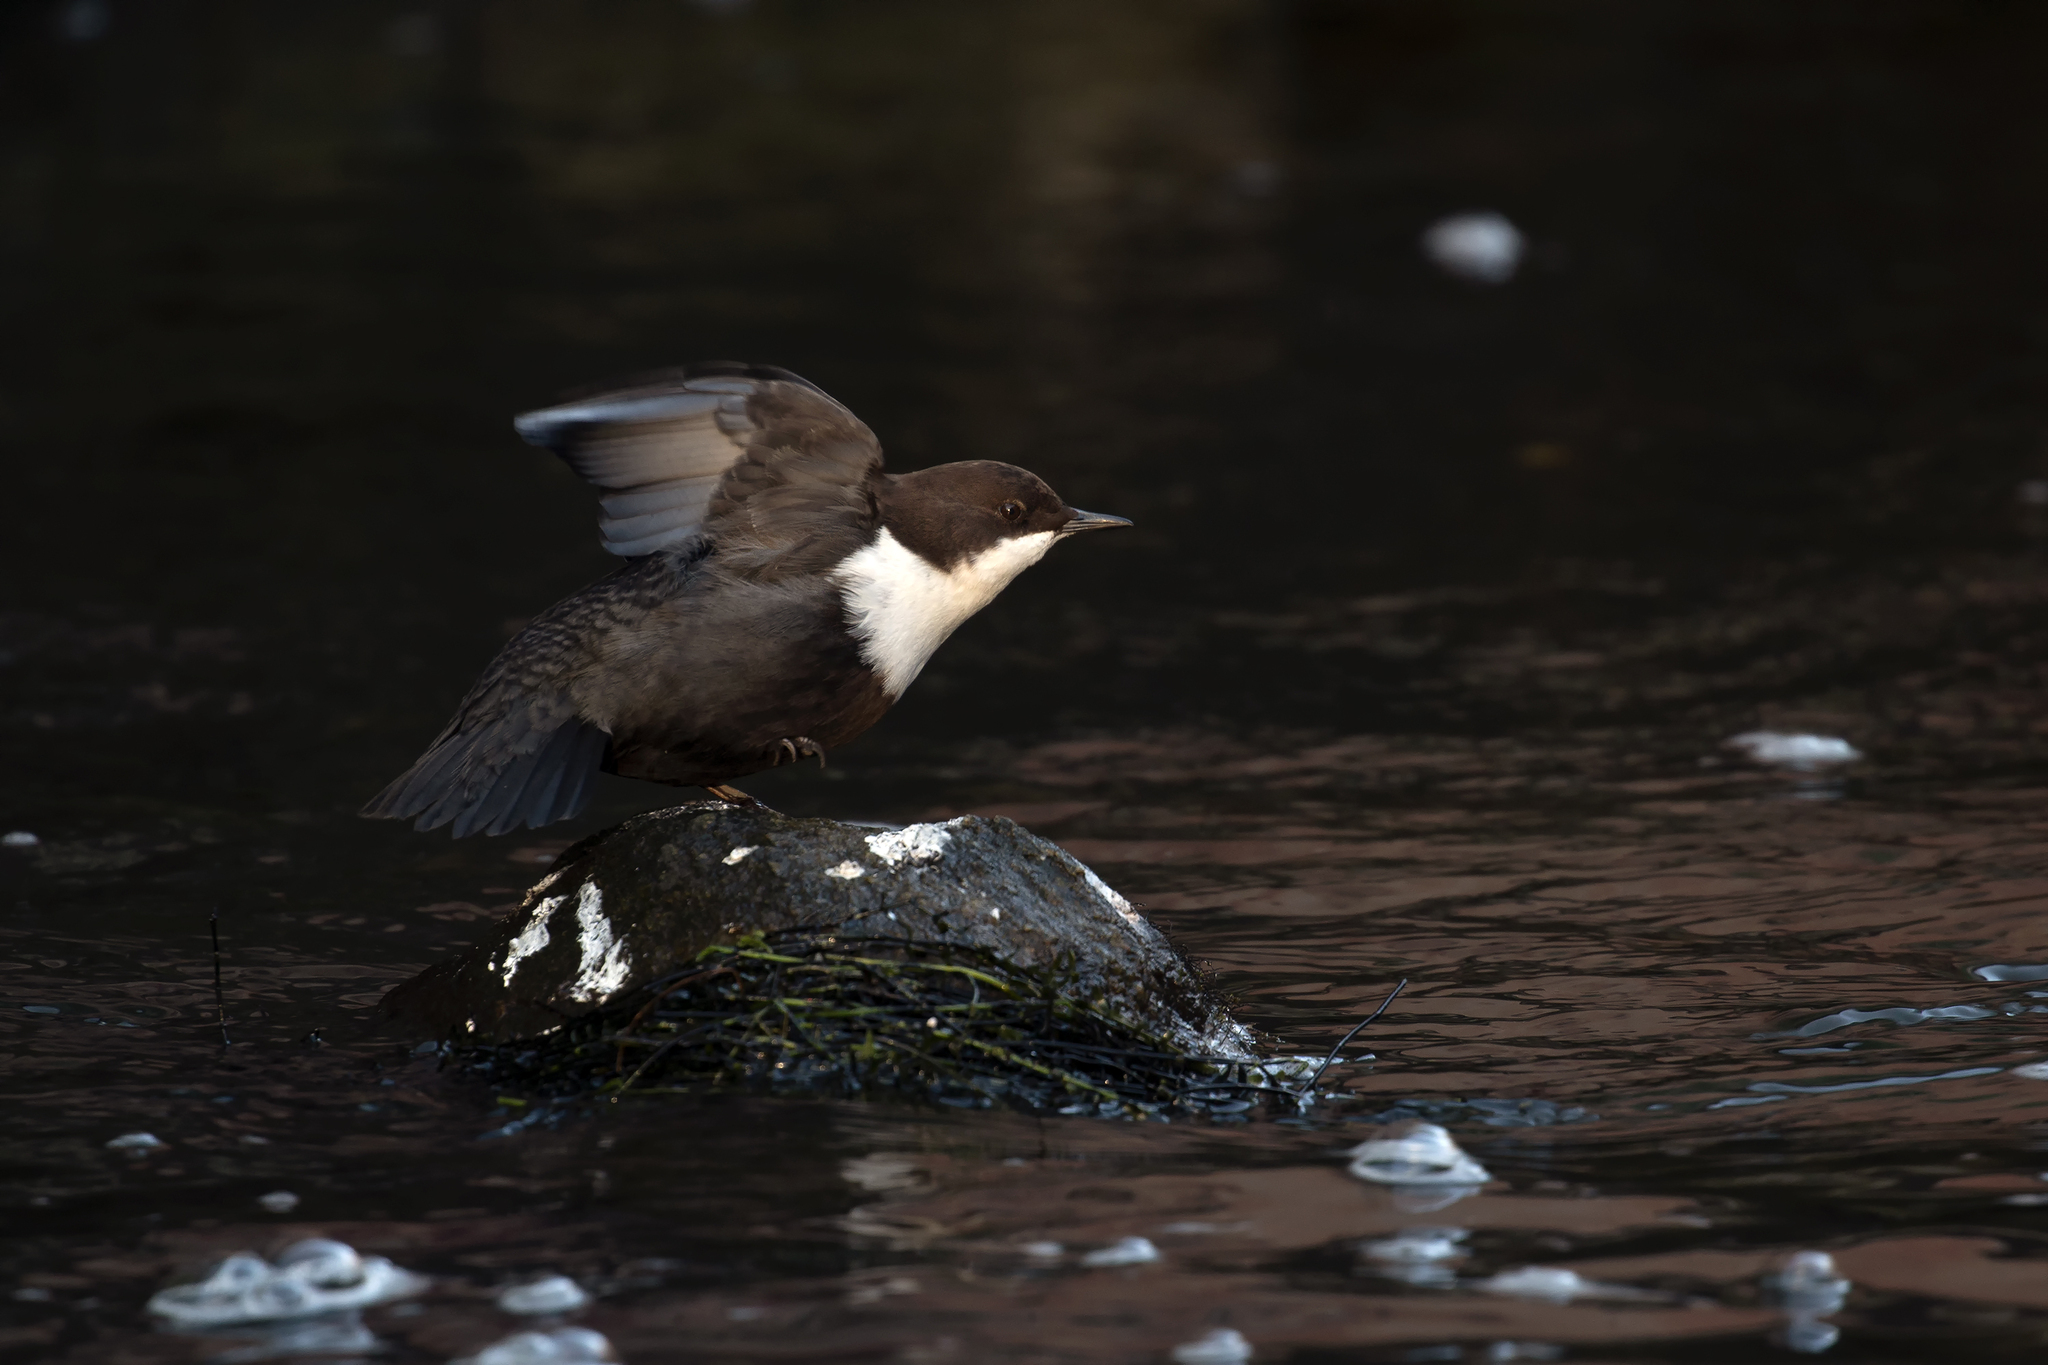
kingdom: Animalia
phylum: Chordata
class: Aves
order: Passeriformes
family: Cinclidae
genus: Cinclus
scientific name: Cinclus cinclus
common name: White-throated dipper
